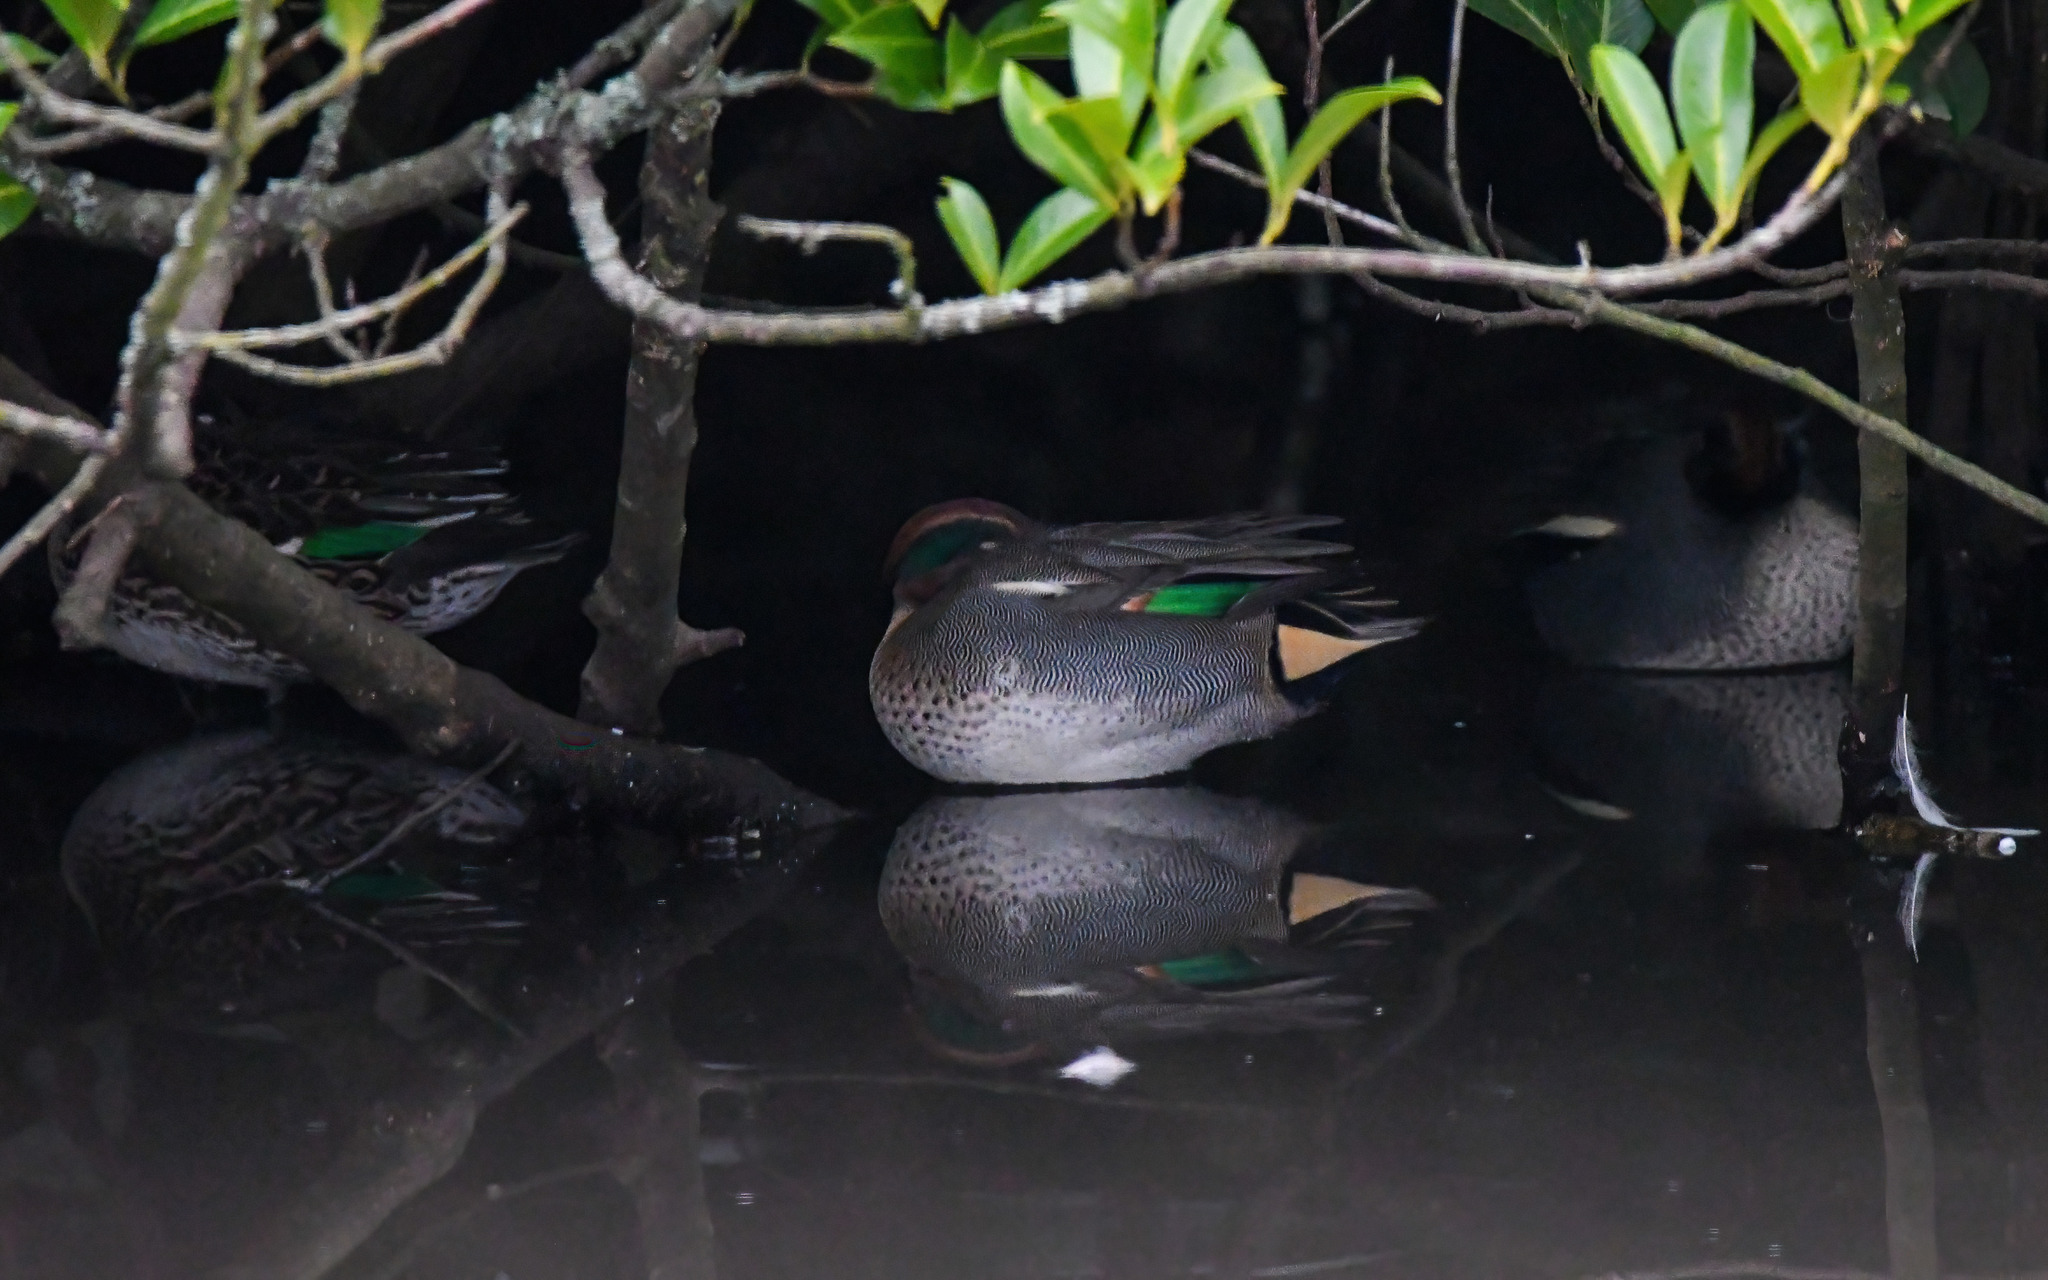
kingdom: Animalia
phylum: Chordata
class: Aves
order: Anseriformes
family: Anatidae
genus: Anas
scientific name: Anas crecca
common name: Eurasian teal
